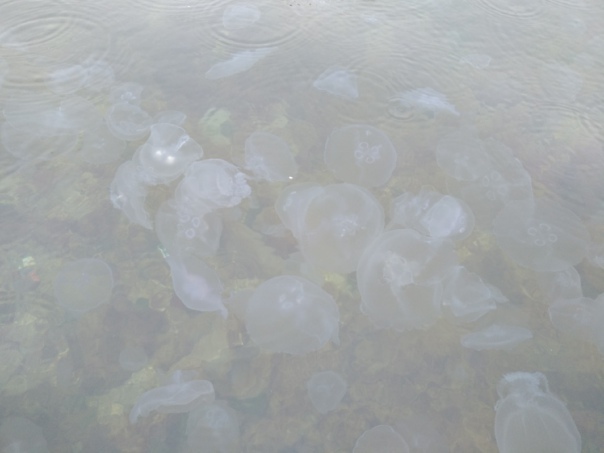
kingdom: Animalia
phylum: Cnidaria
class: Scyphozoa
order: Semaeostomeae
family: Ulmaridae
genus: Aurelia
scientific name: Aurelia aurita
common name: Moon jellyfish
